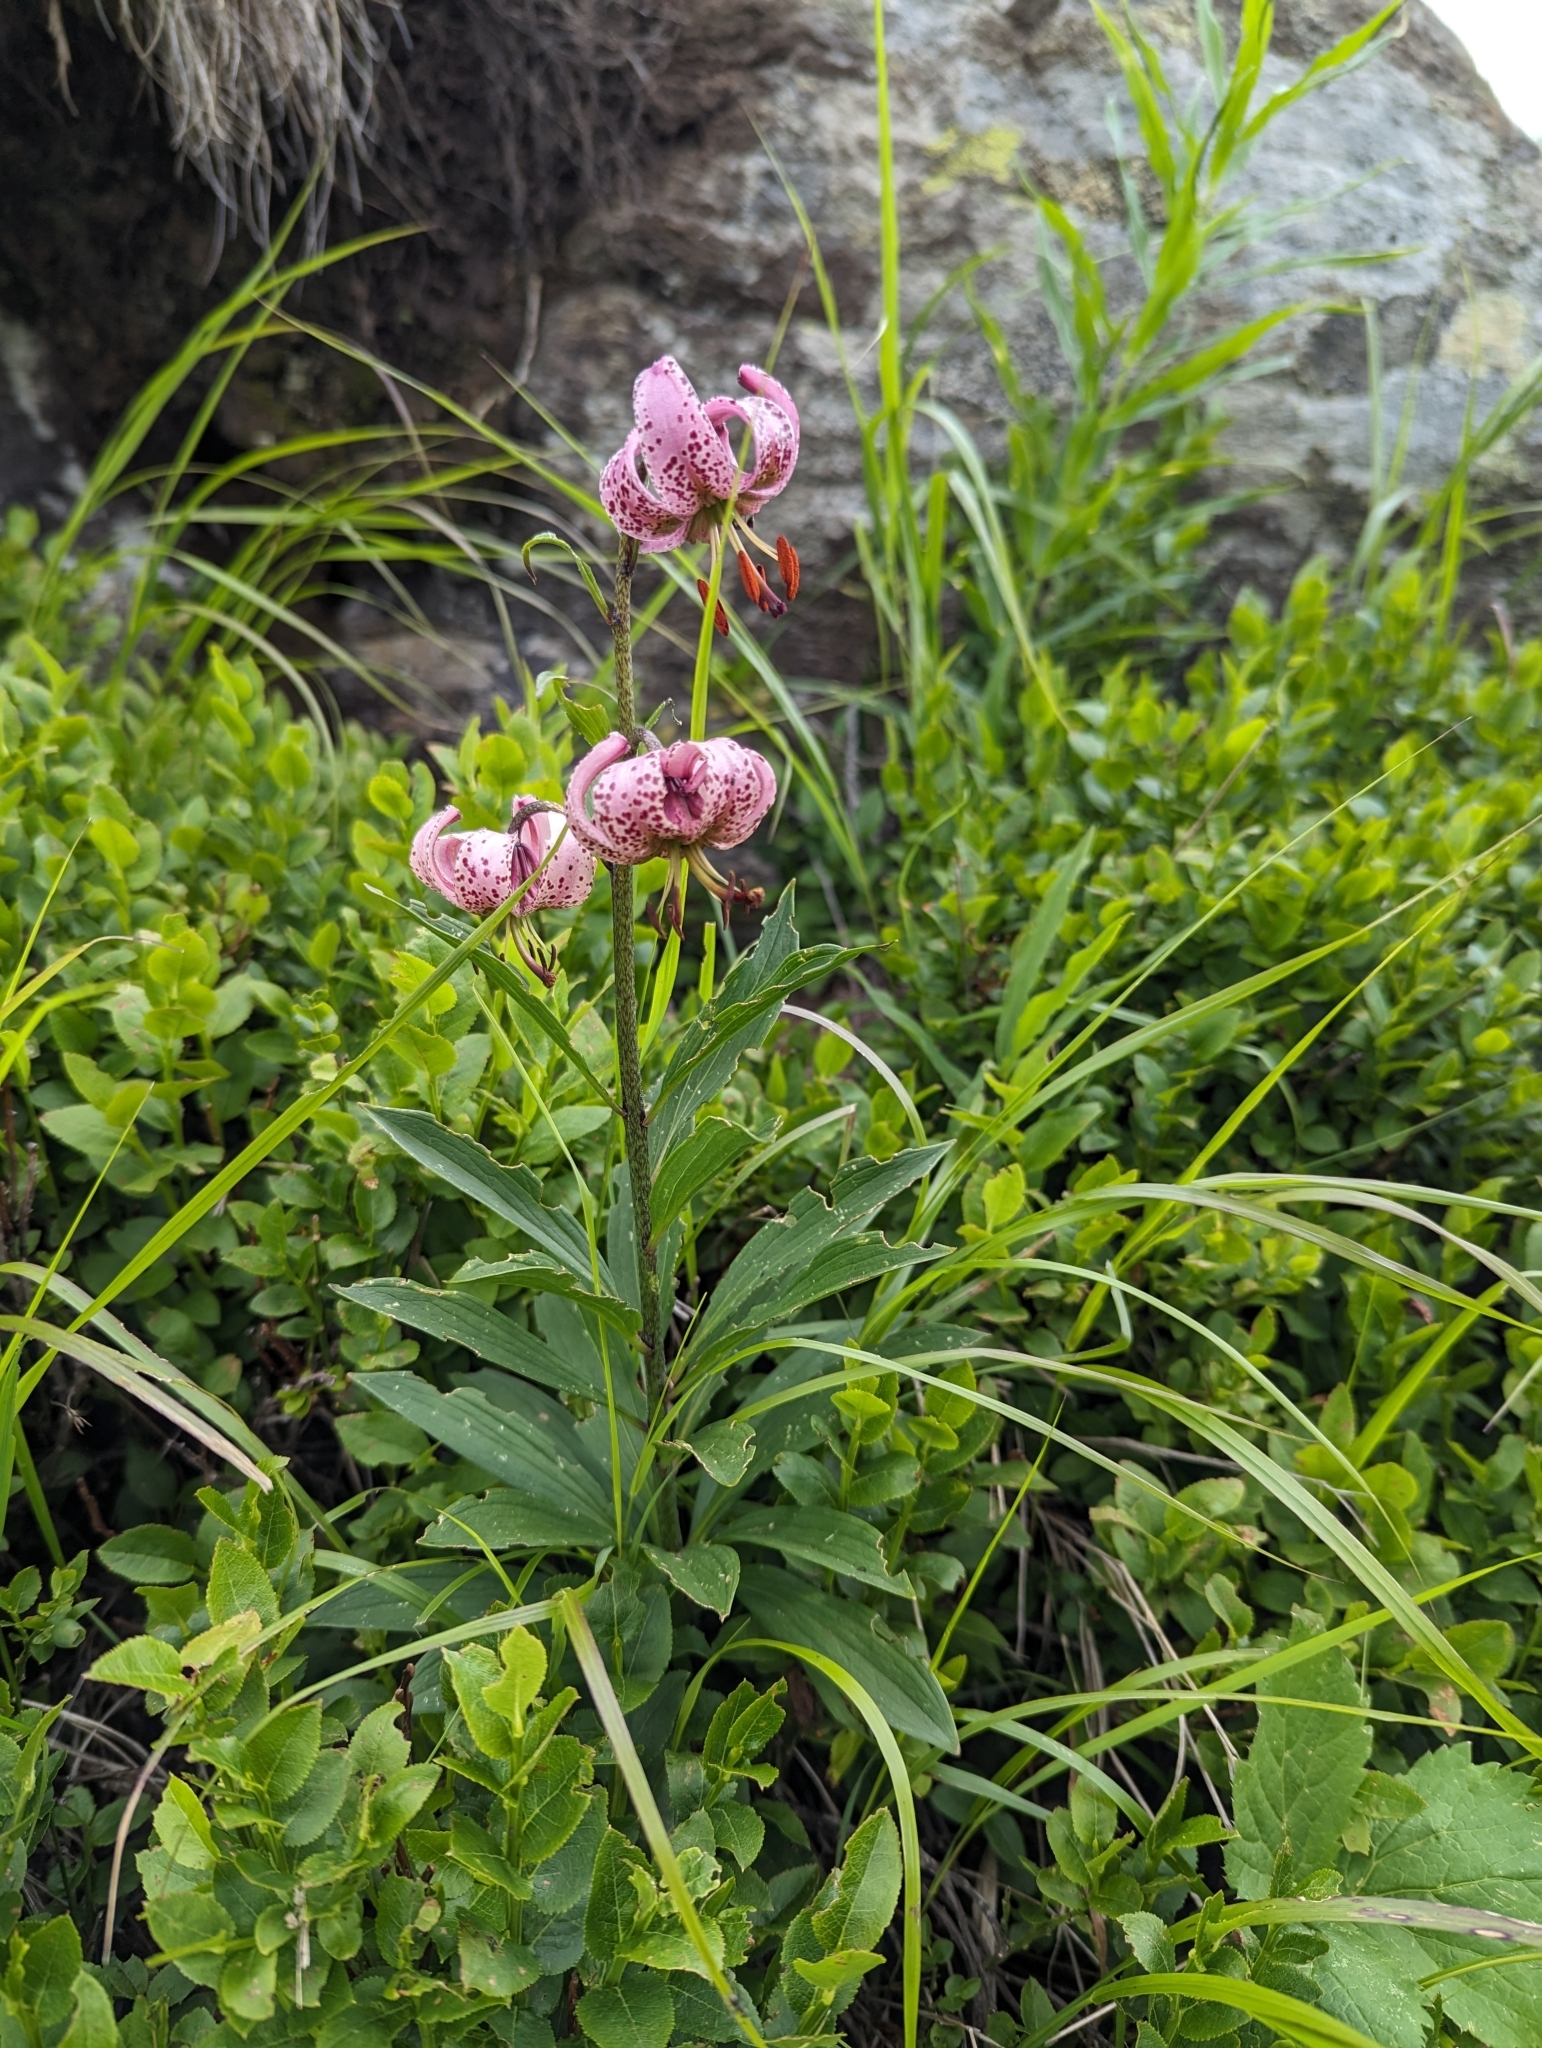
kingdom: Plantae
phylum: Tracheophyta
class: Liliopsida
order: Liliales
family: Liliaceae
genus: Lilium
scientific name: Lilium martagon
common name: Martagon lily
